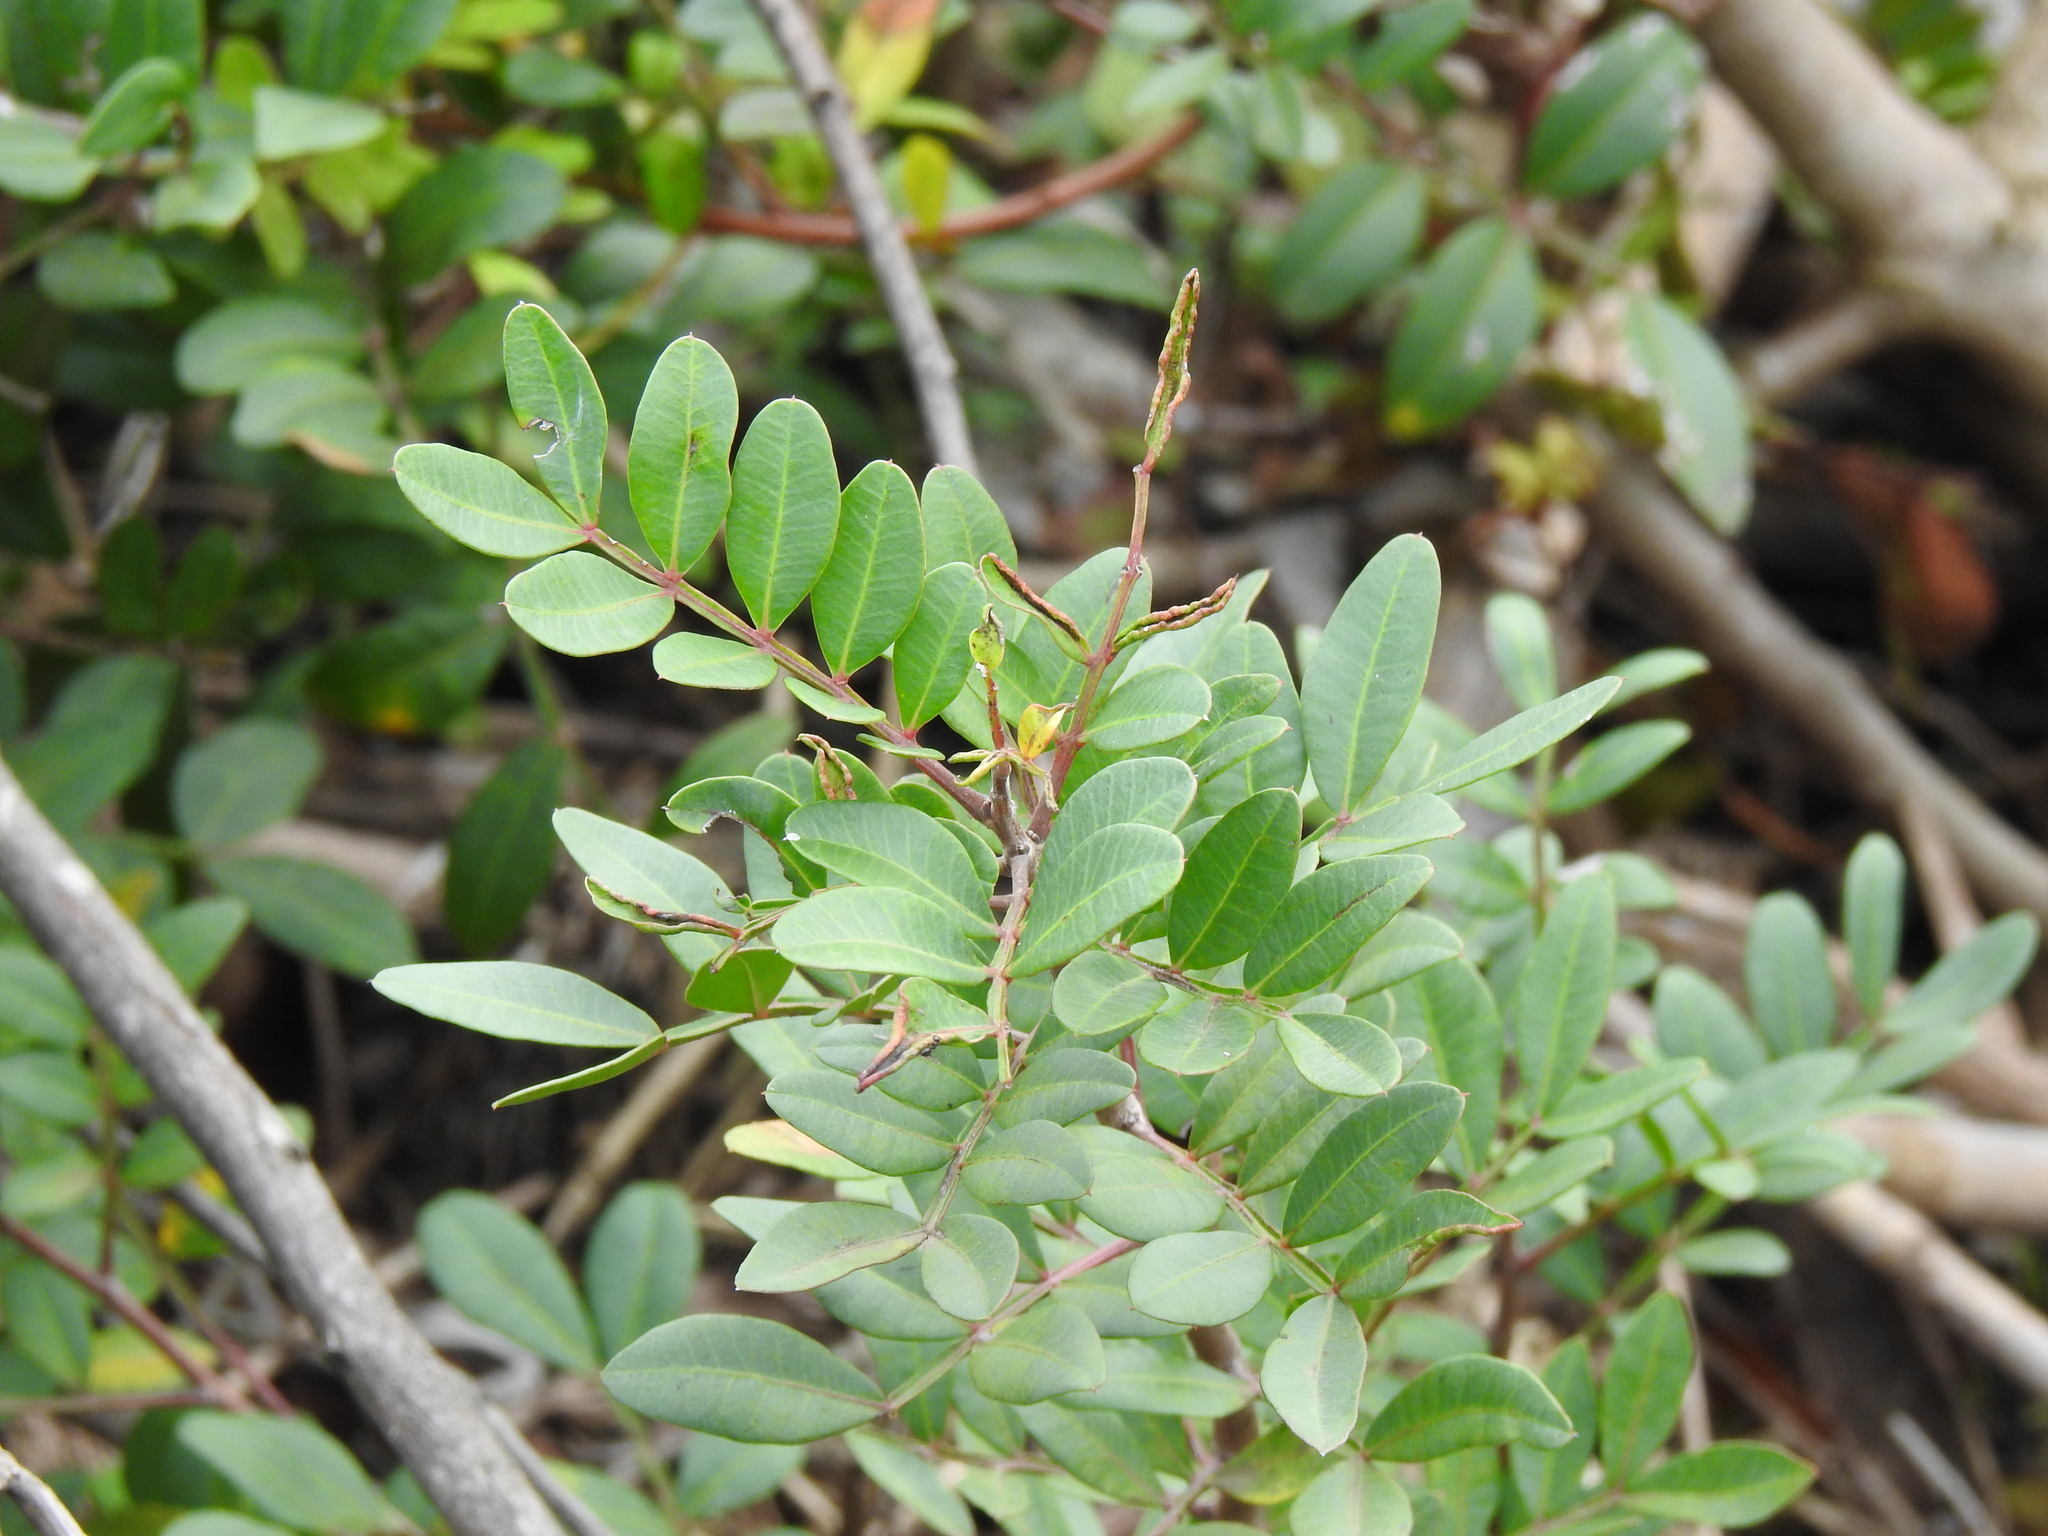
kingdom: Plantae
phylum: Tracheophyta
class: Magnoliopsida
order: Sapindales
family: Anacardiaceae
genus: Pistacia
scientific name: Pistacia lentiscus
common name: Lentisk
